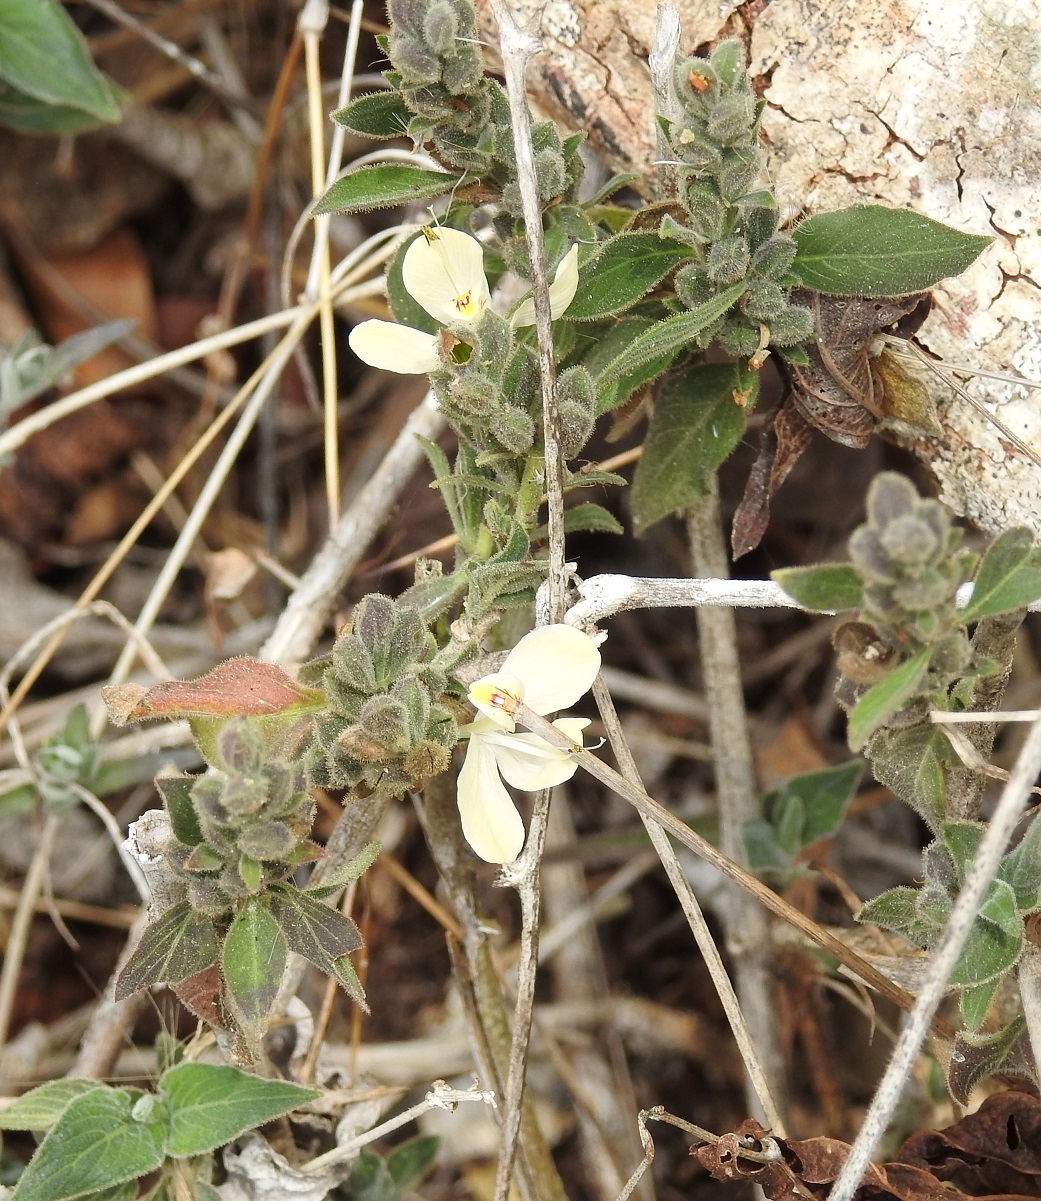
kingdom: Plantae
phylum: Tracheophyta
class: Magnoliopsida
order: Lamiales
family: Acanthaceae
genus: Henrya
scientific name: Henrya insularis
